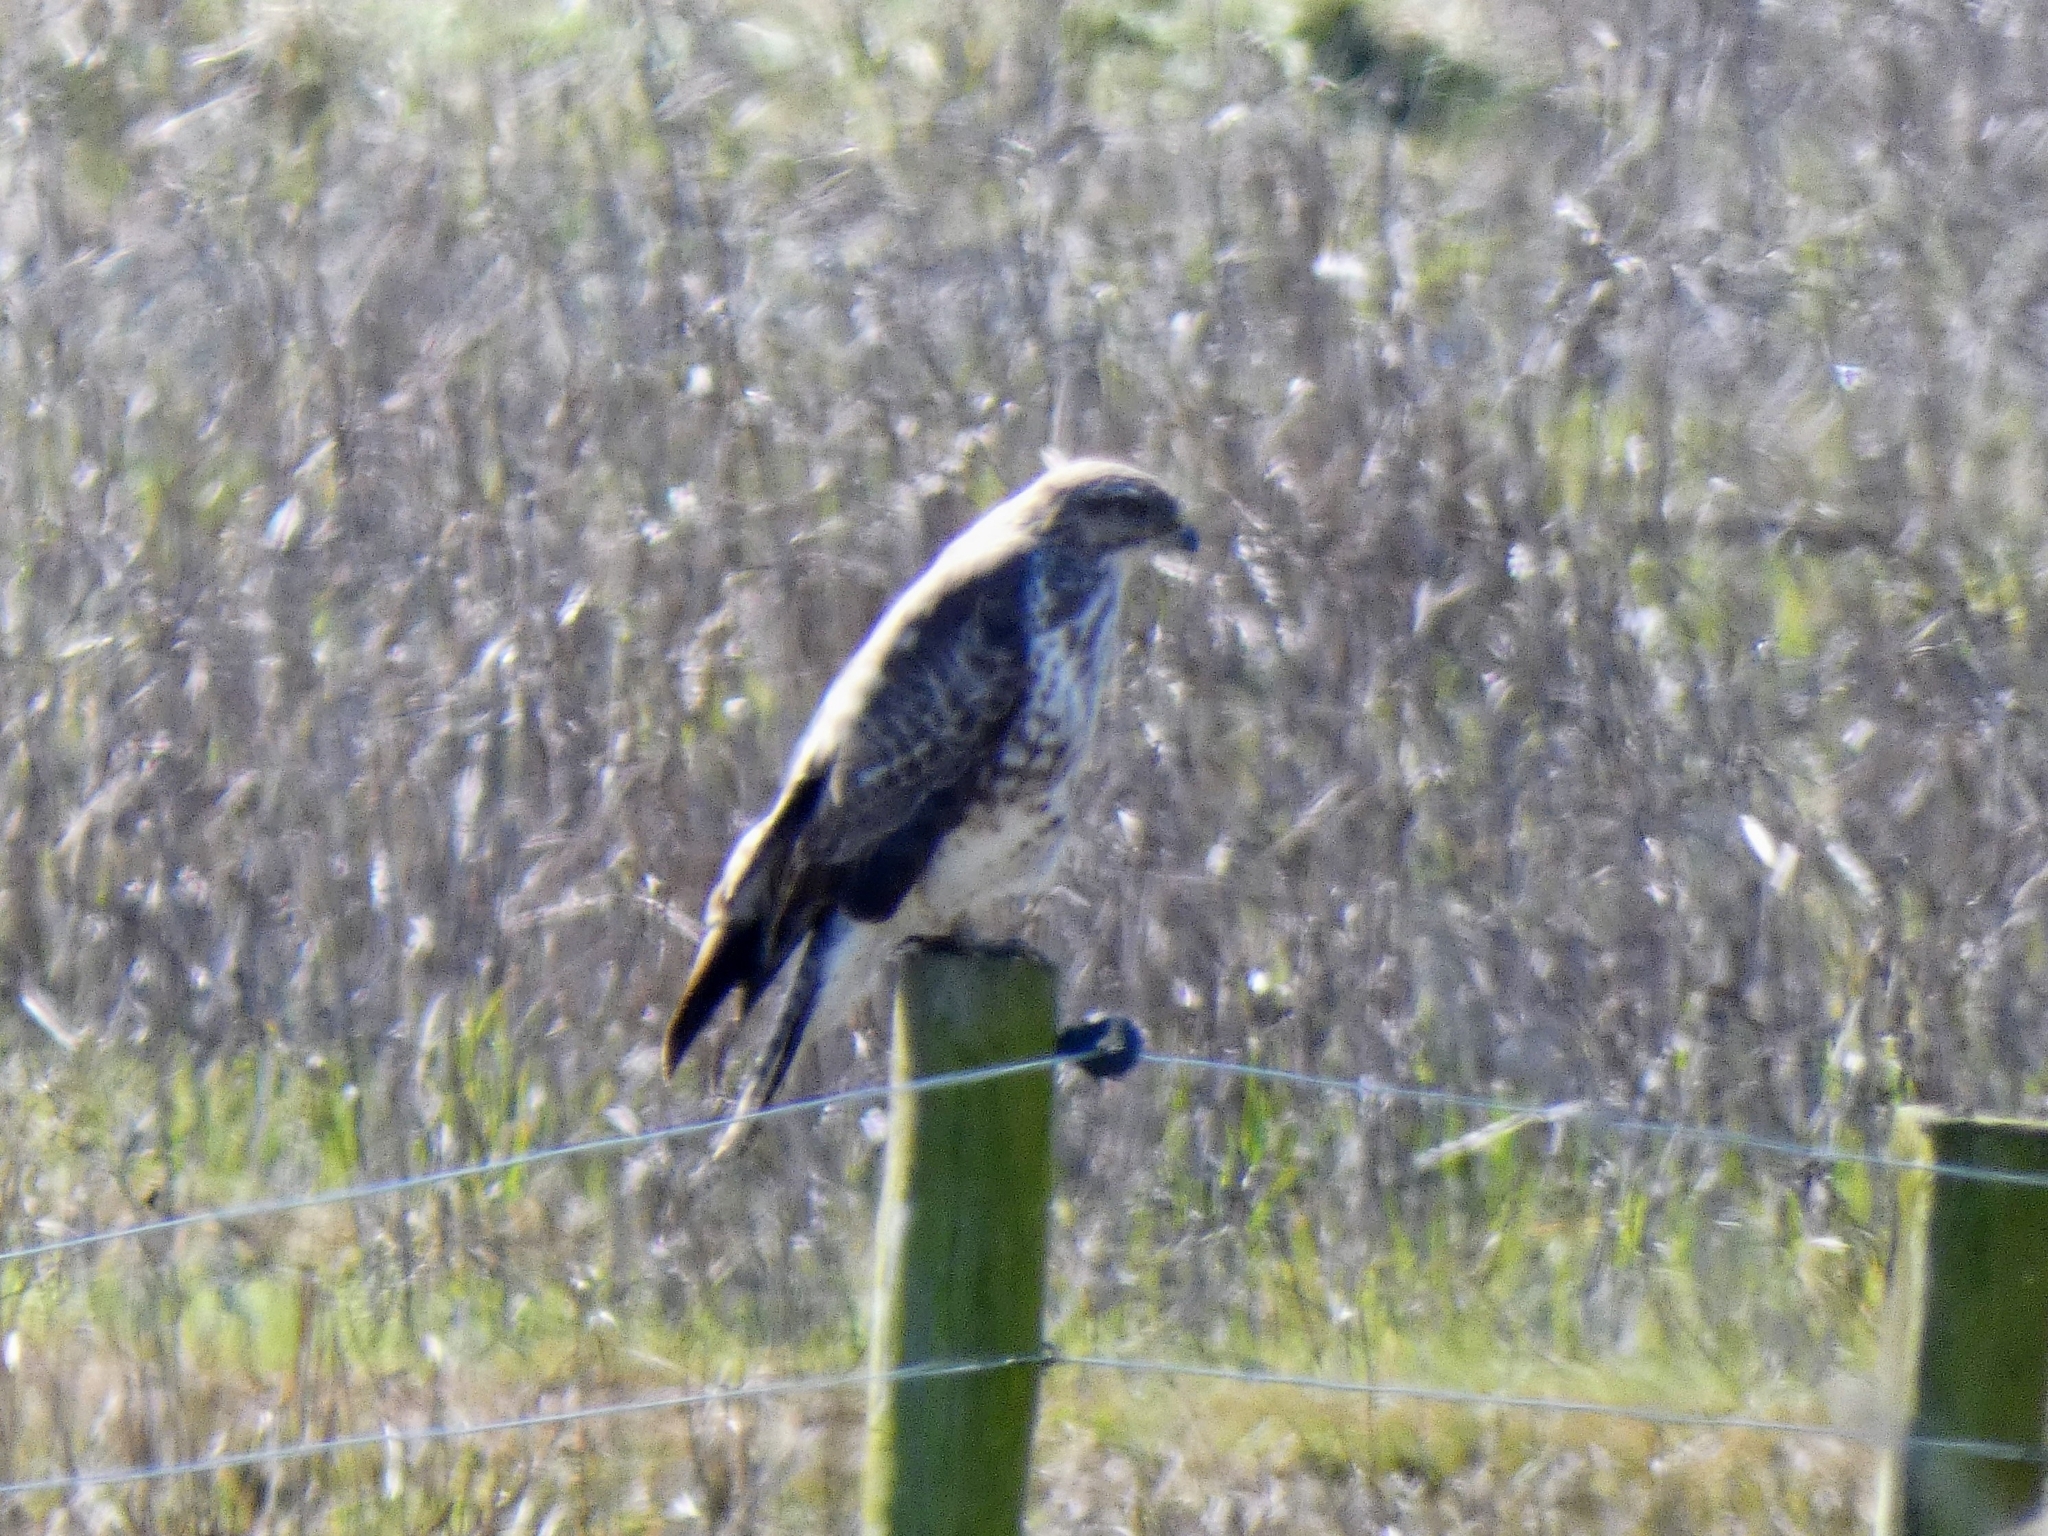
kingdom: Animalia
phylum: Chordata
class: Aves
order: Accipitriformes
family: Accipitridae
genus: Buteo
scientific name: Buteo buteo
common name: Common buzzard
